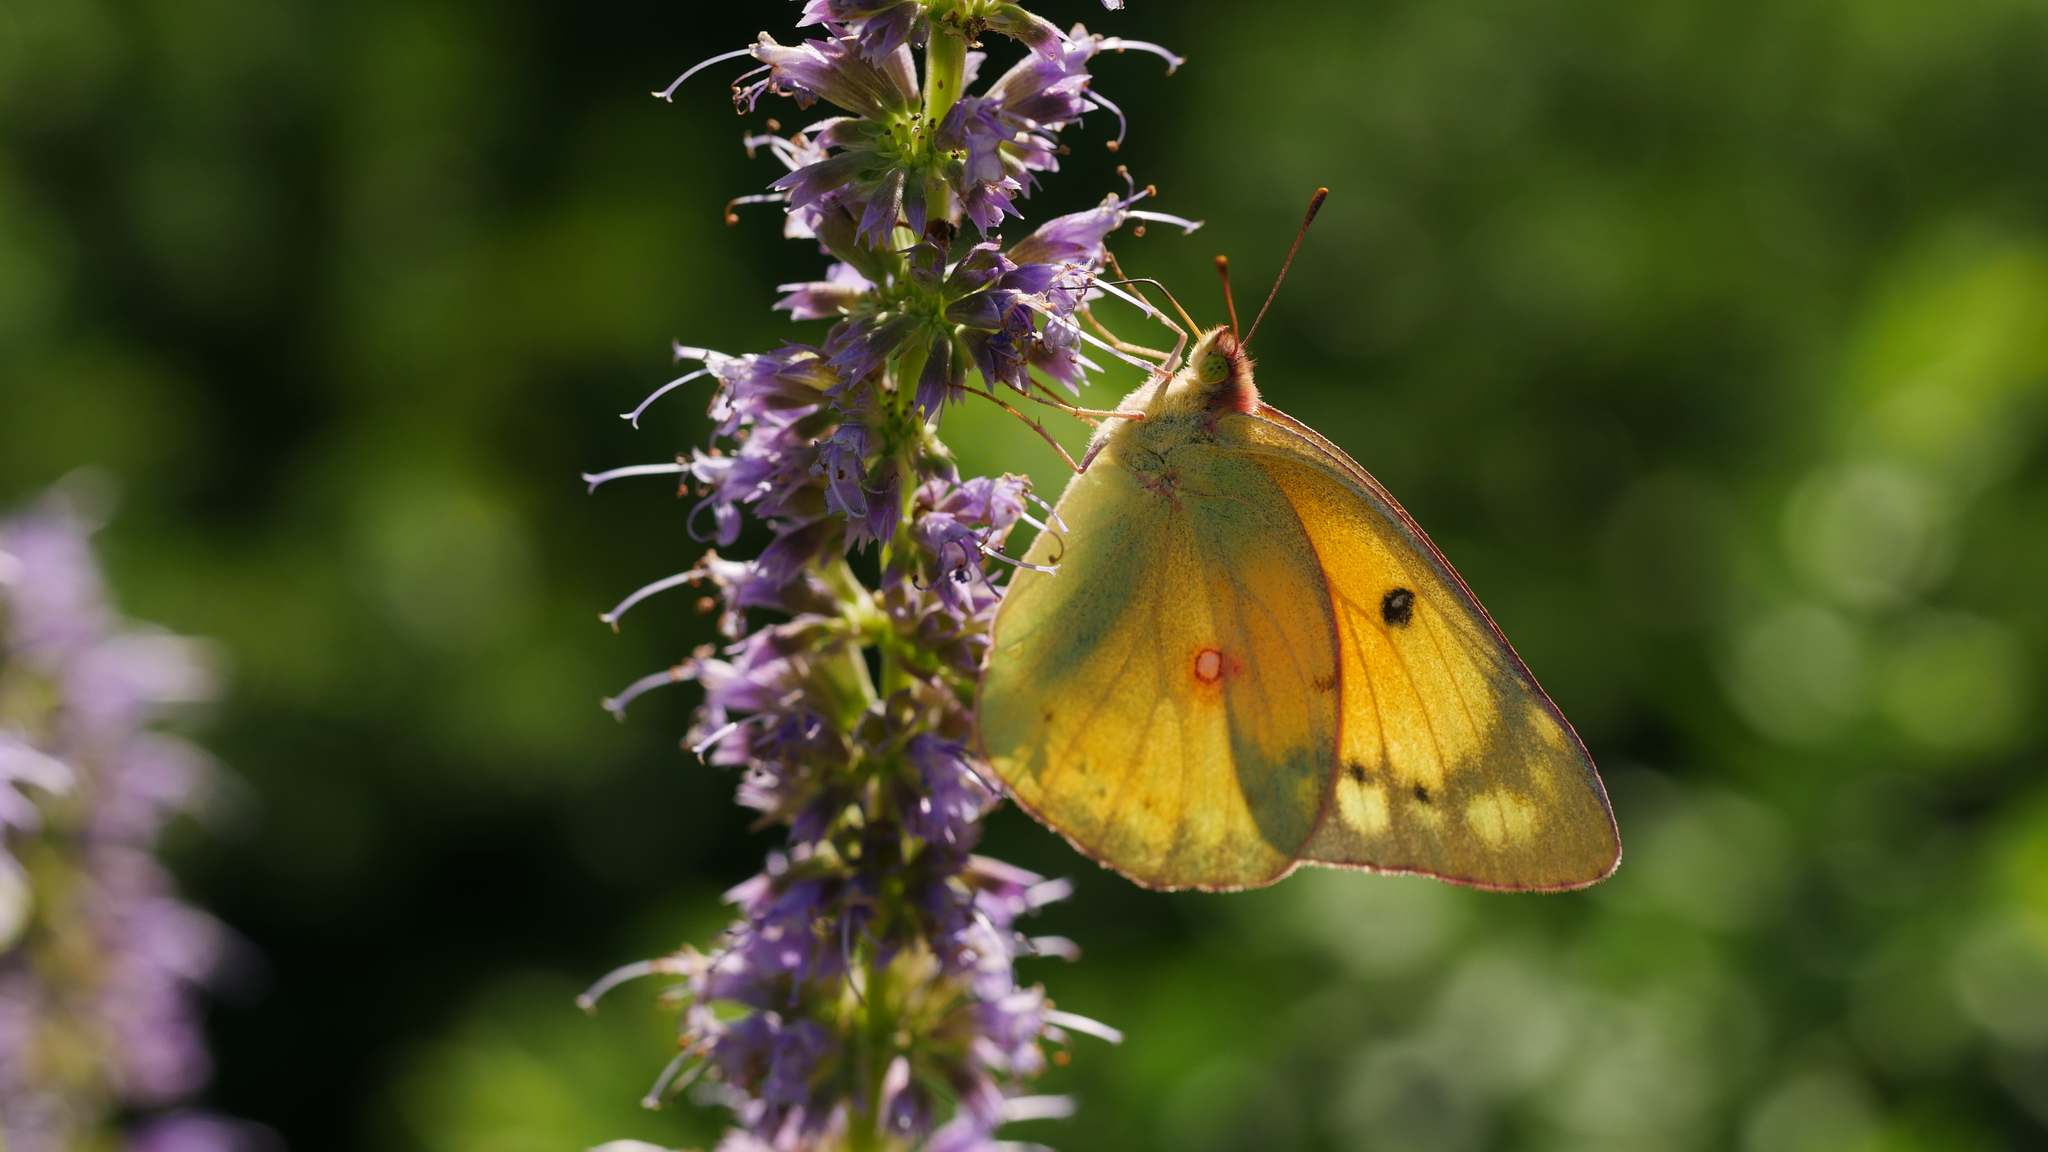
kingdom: Animalia
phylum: Arthropoda
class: Insecta
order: Lepidoptera
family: Pieridae
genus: Colias
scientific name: Colias eurytheme
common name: Alfalfa butterfly
